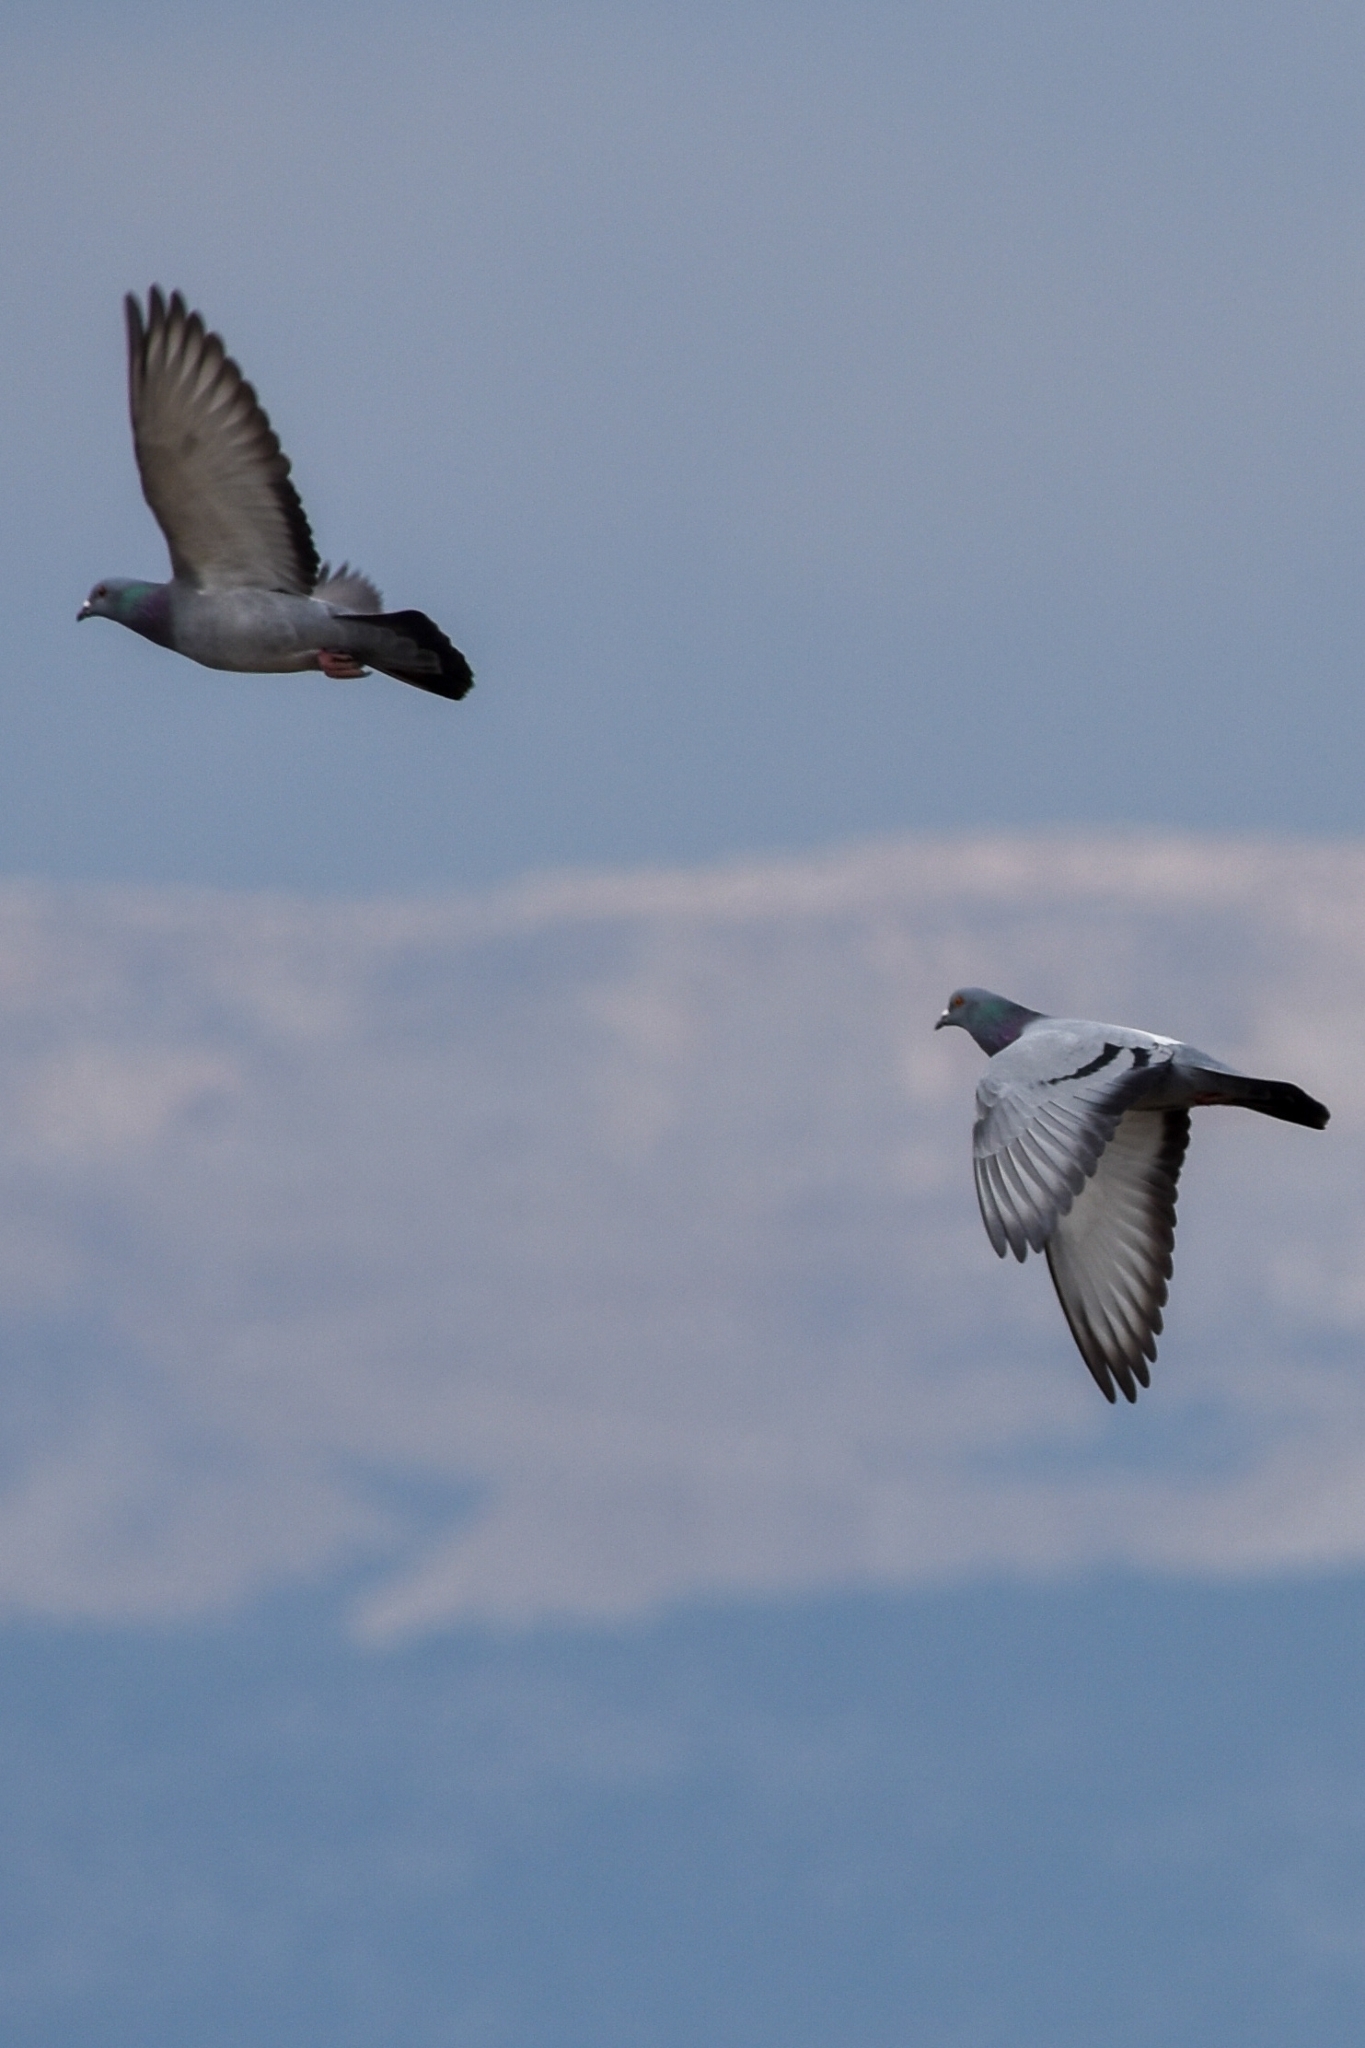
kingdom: Animalia
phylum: Chordata
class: Aves
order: Columbiformes
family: Columbidae
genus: Columba
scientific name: Columba livia
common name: Rock pigeon
